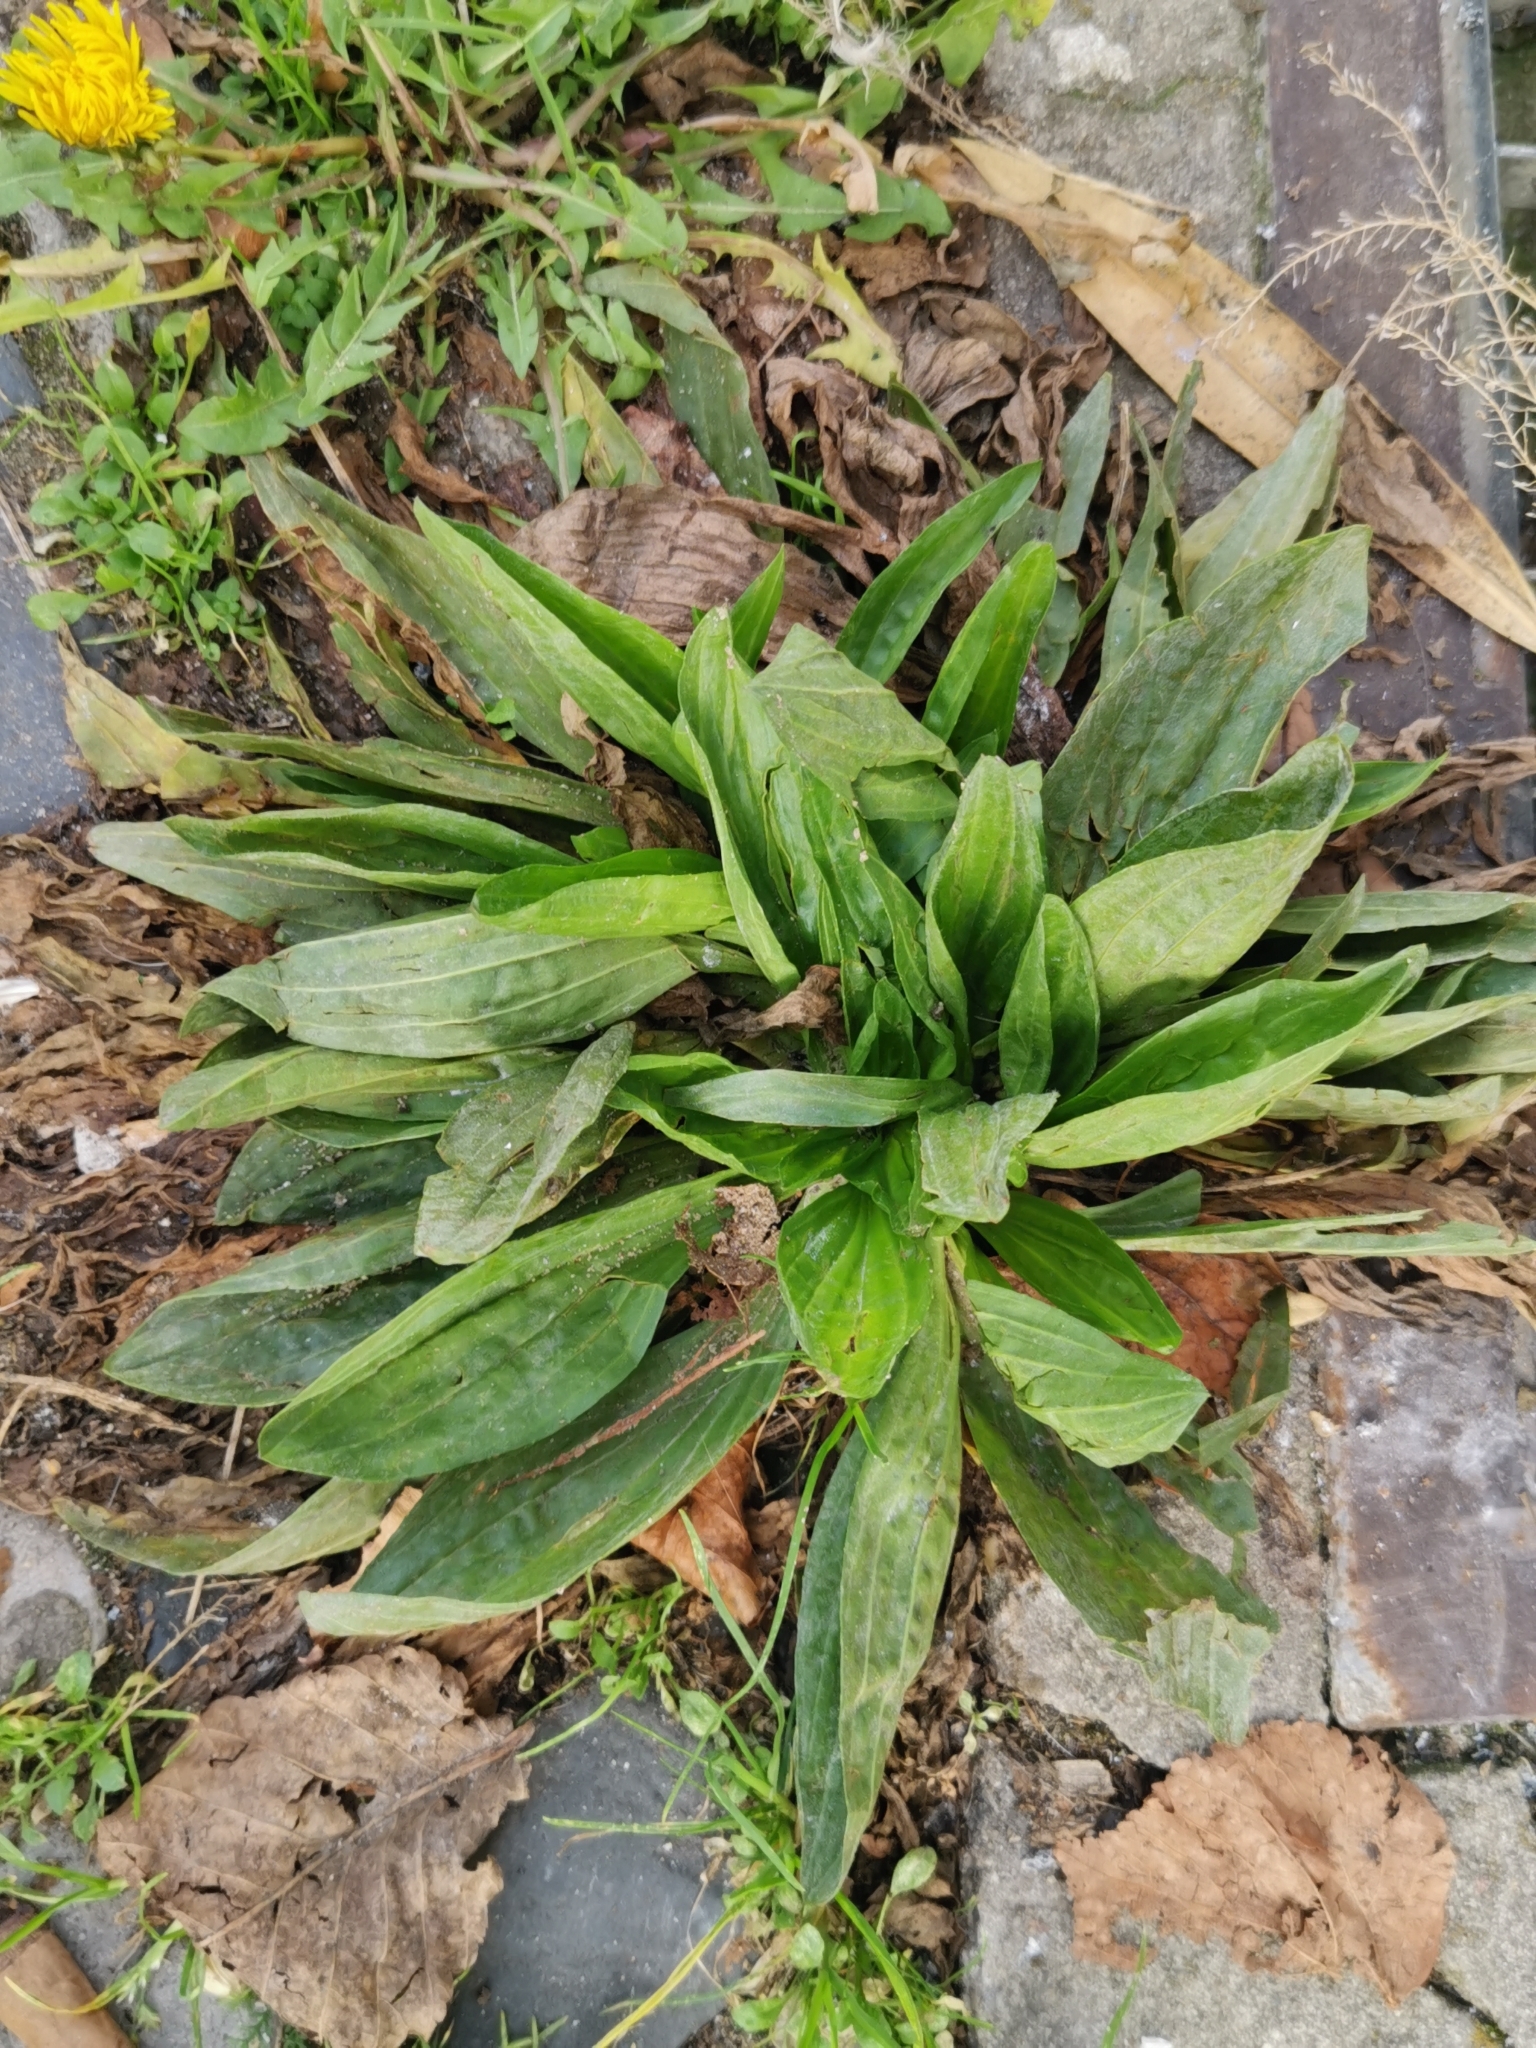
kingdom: Plantae
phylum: Tracheophyta
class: Magnoliopsida
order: Lamiales
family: Plantaginaceae
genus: Plantago
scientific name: Plantago lanceolata
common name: Ribwort plantain
